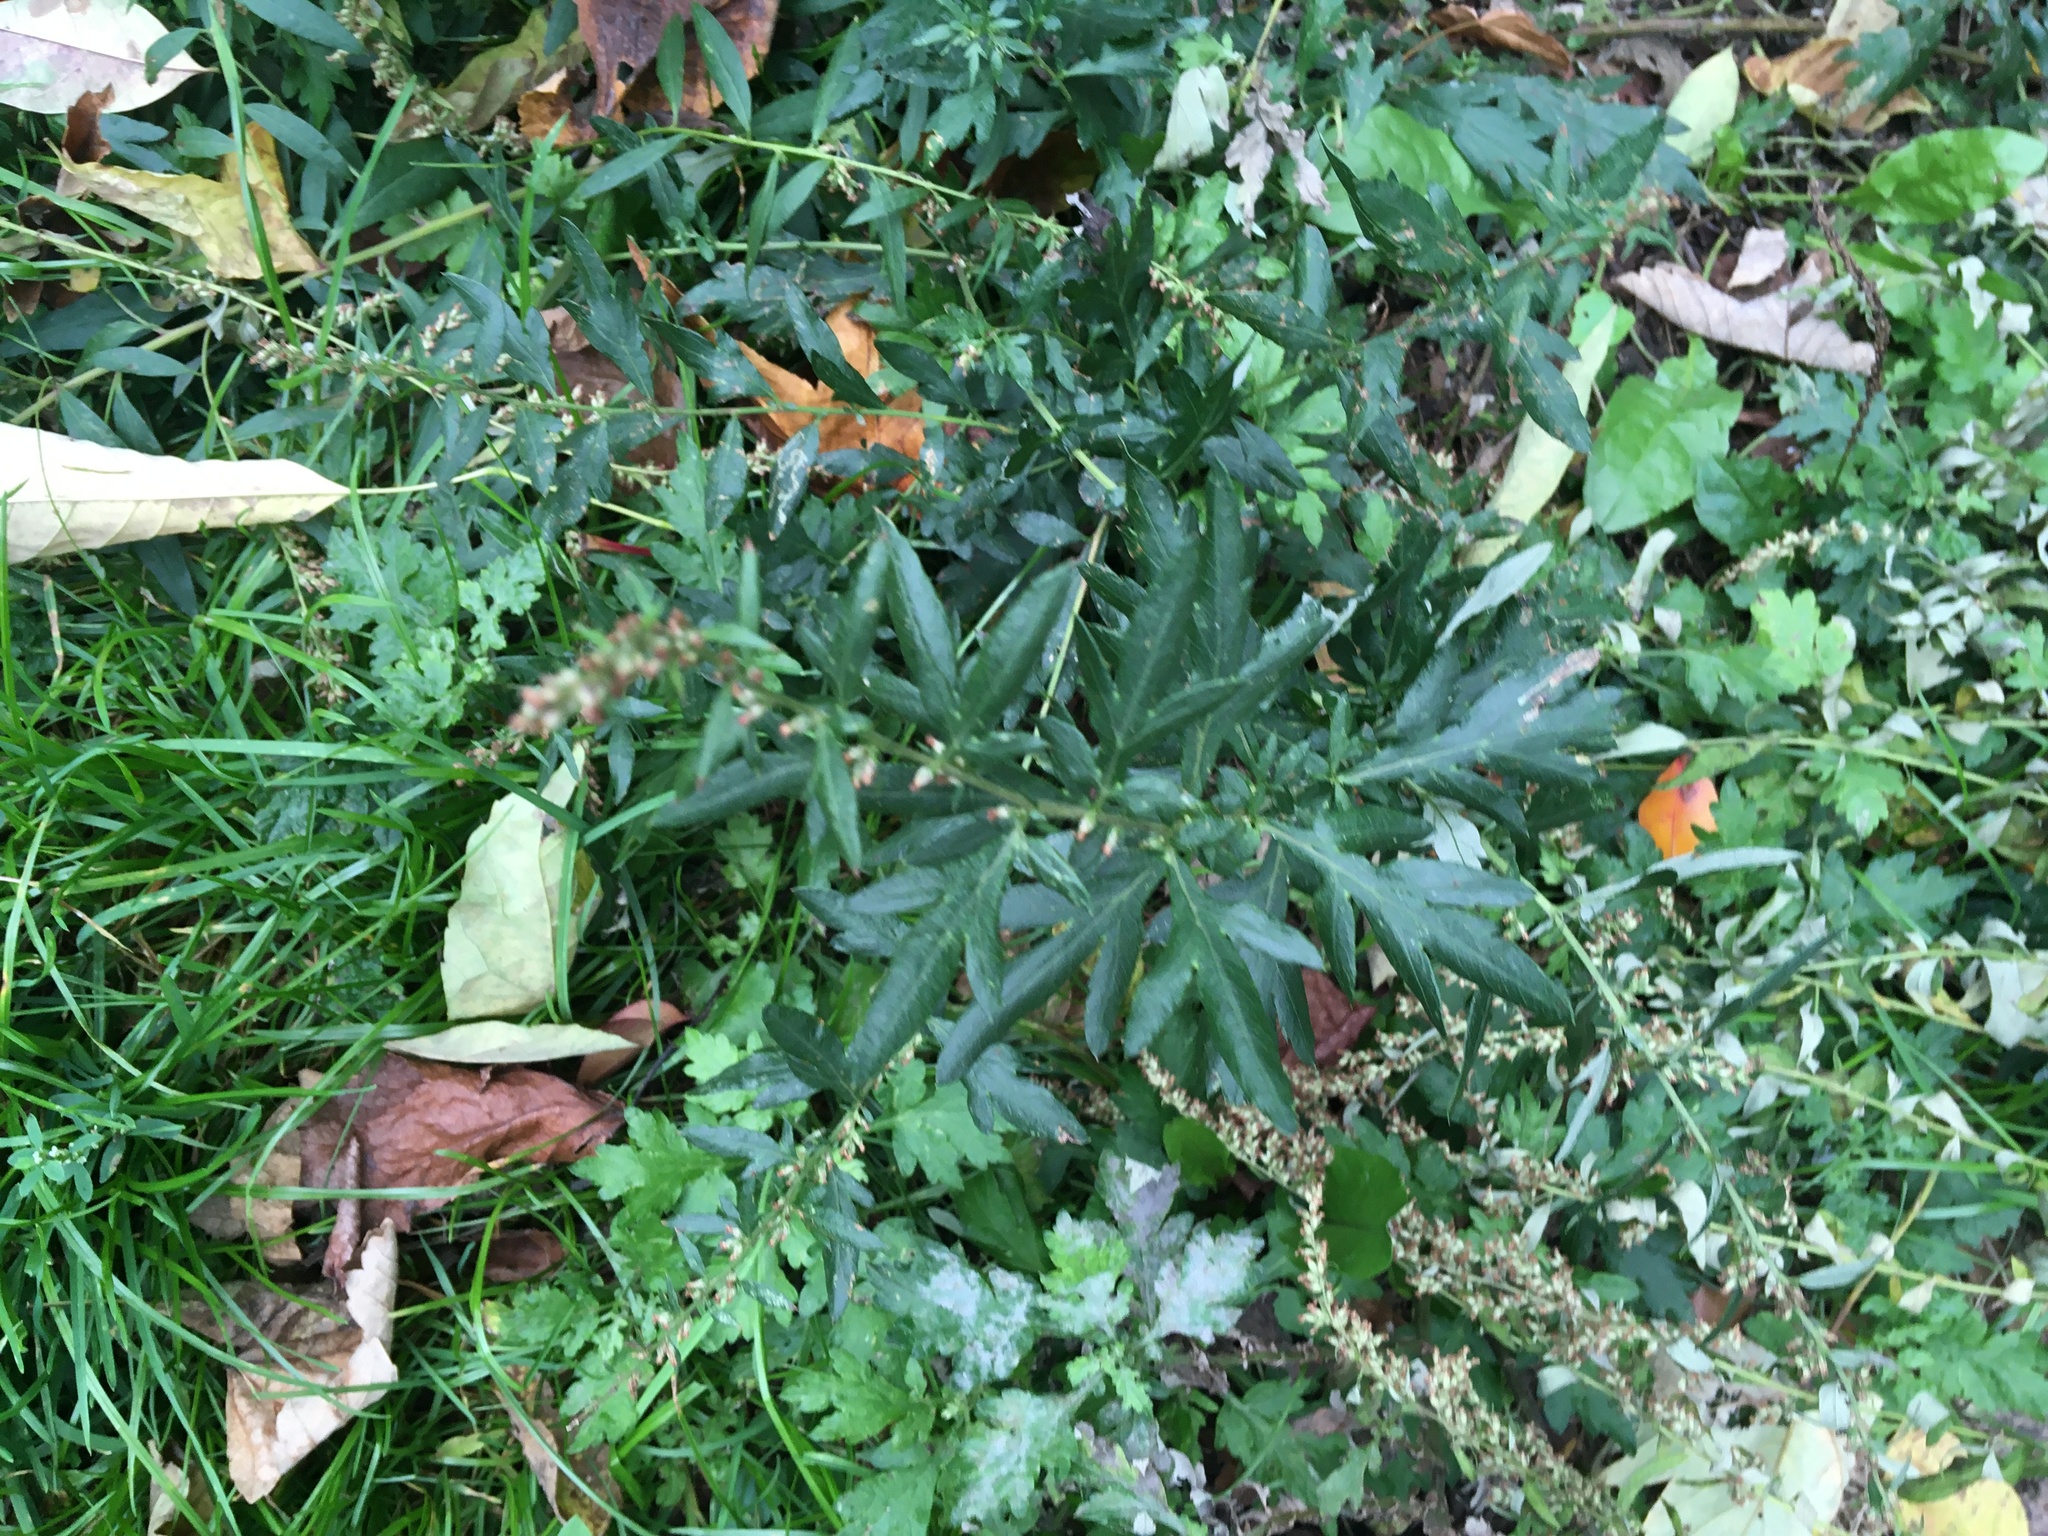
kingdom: Plantae
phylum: Tracheophyta
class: Magnoliopsida
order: Asterales
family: Asteraceae
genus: Artemisia
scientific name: Artemisia vulgaris
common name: Mugwort
